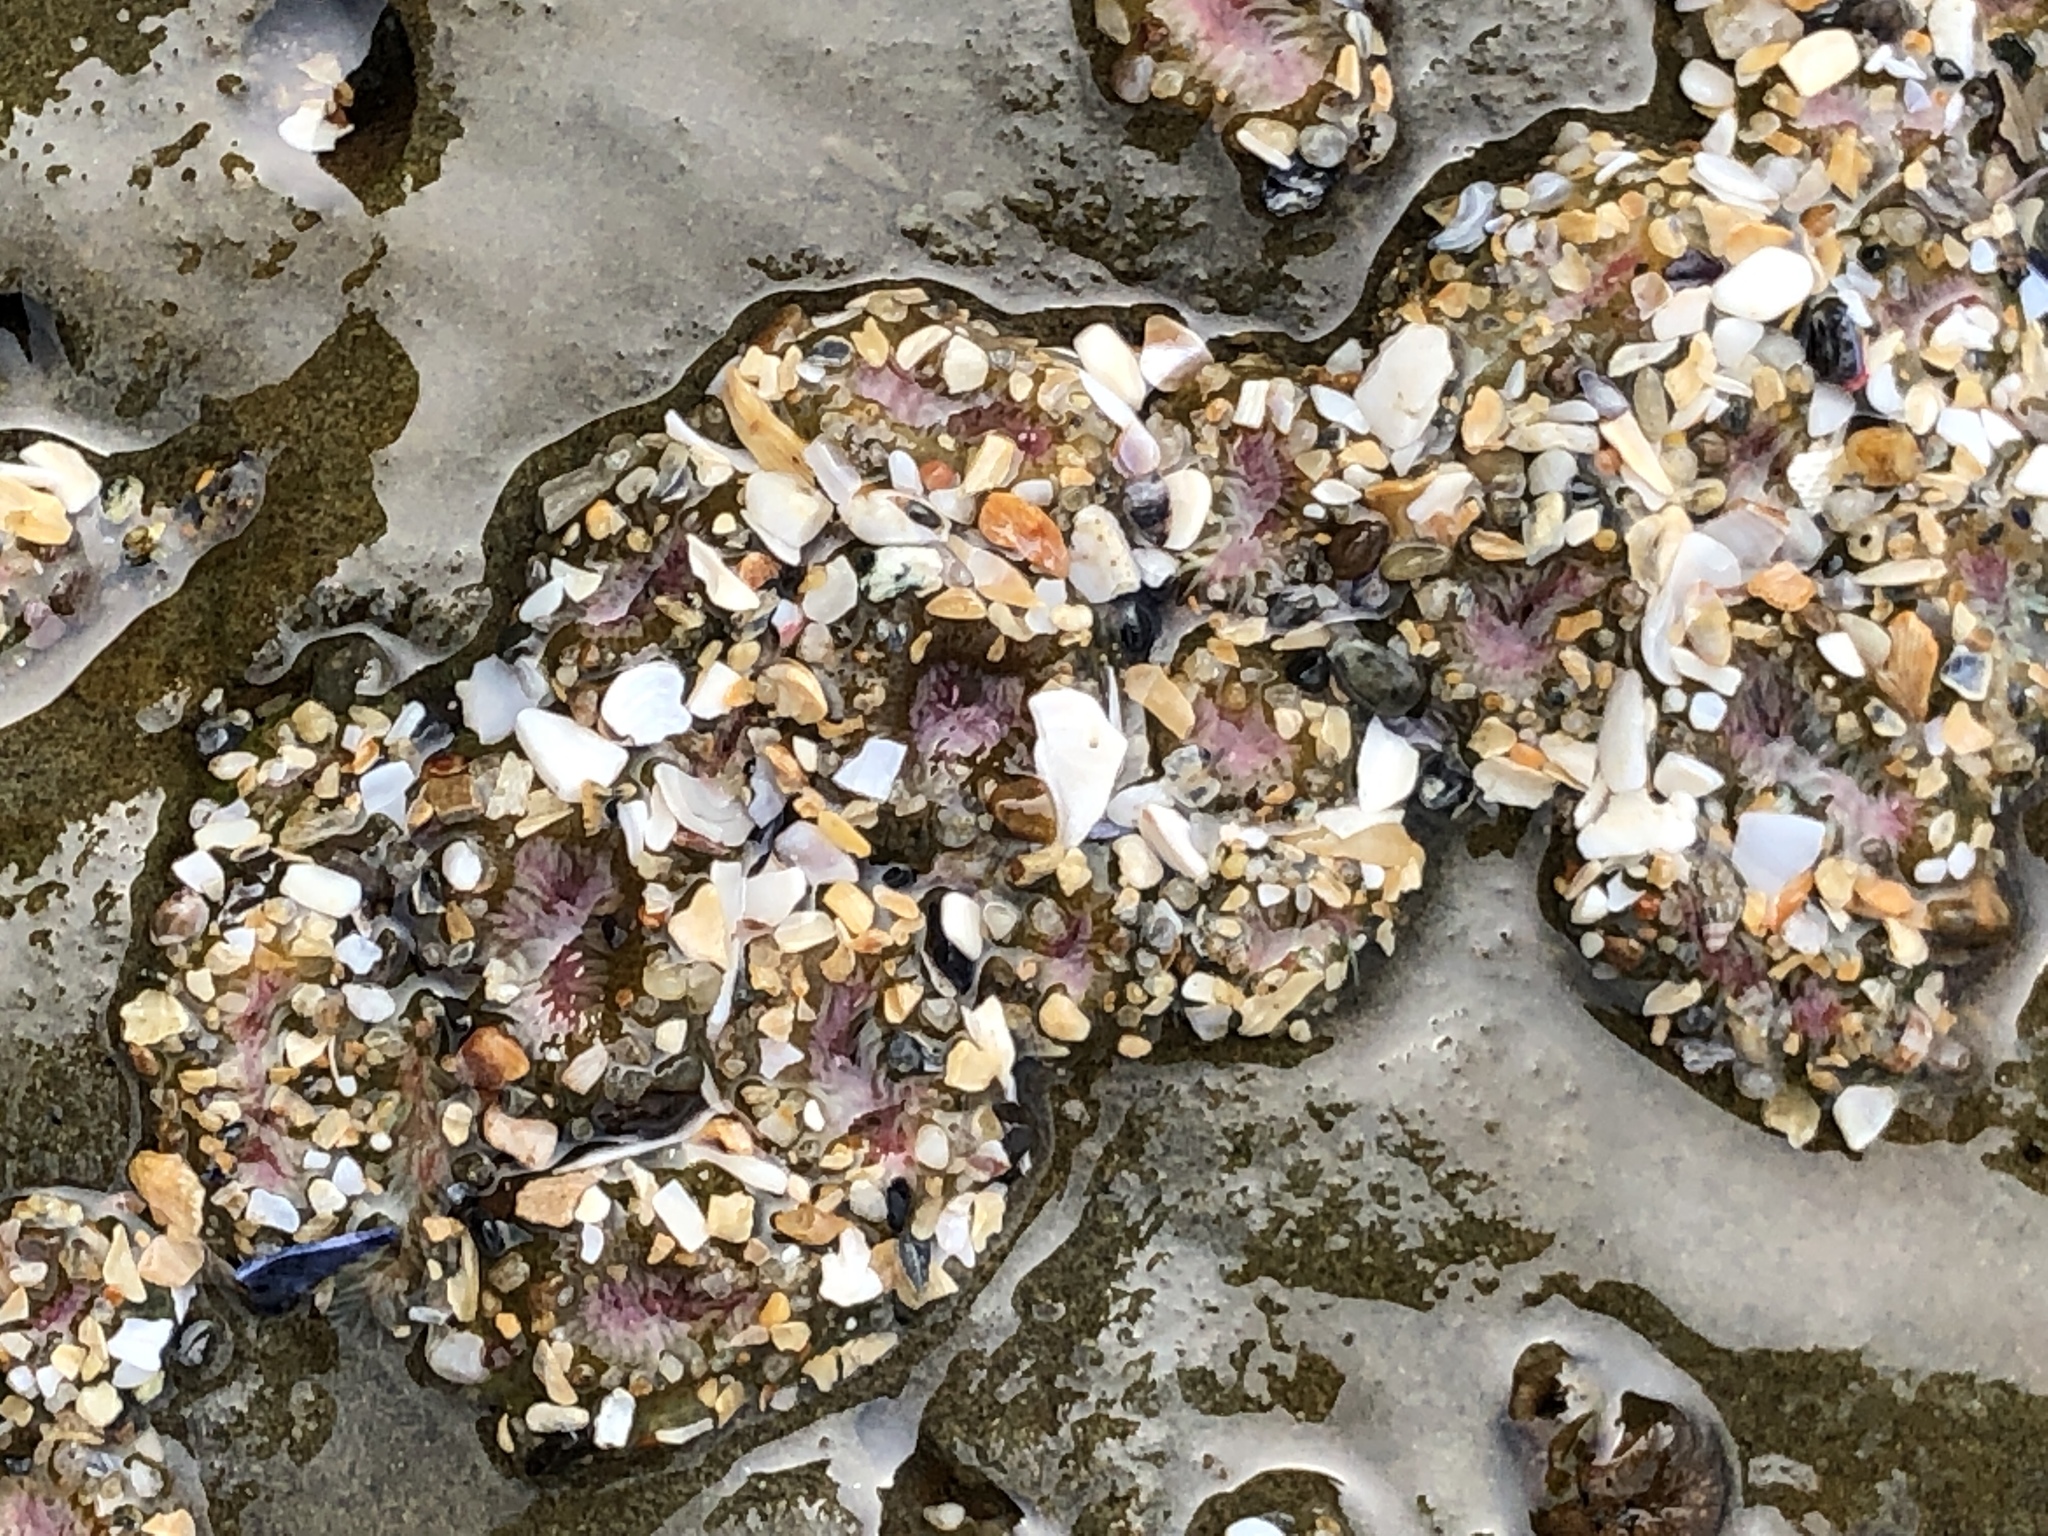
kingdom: Animalia
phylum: Cnidaria
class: Anthozoa
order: Actiniaria
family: Actiniidae
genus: Anthopleura
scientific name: Anthopleura elegantissima
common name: Clonal anemone
